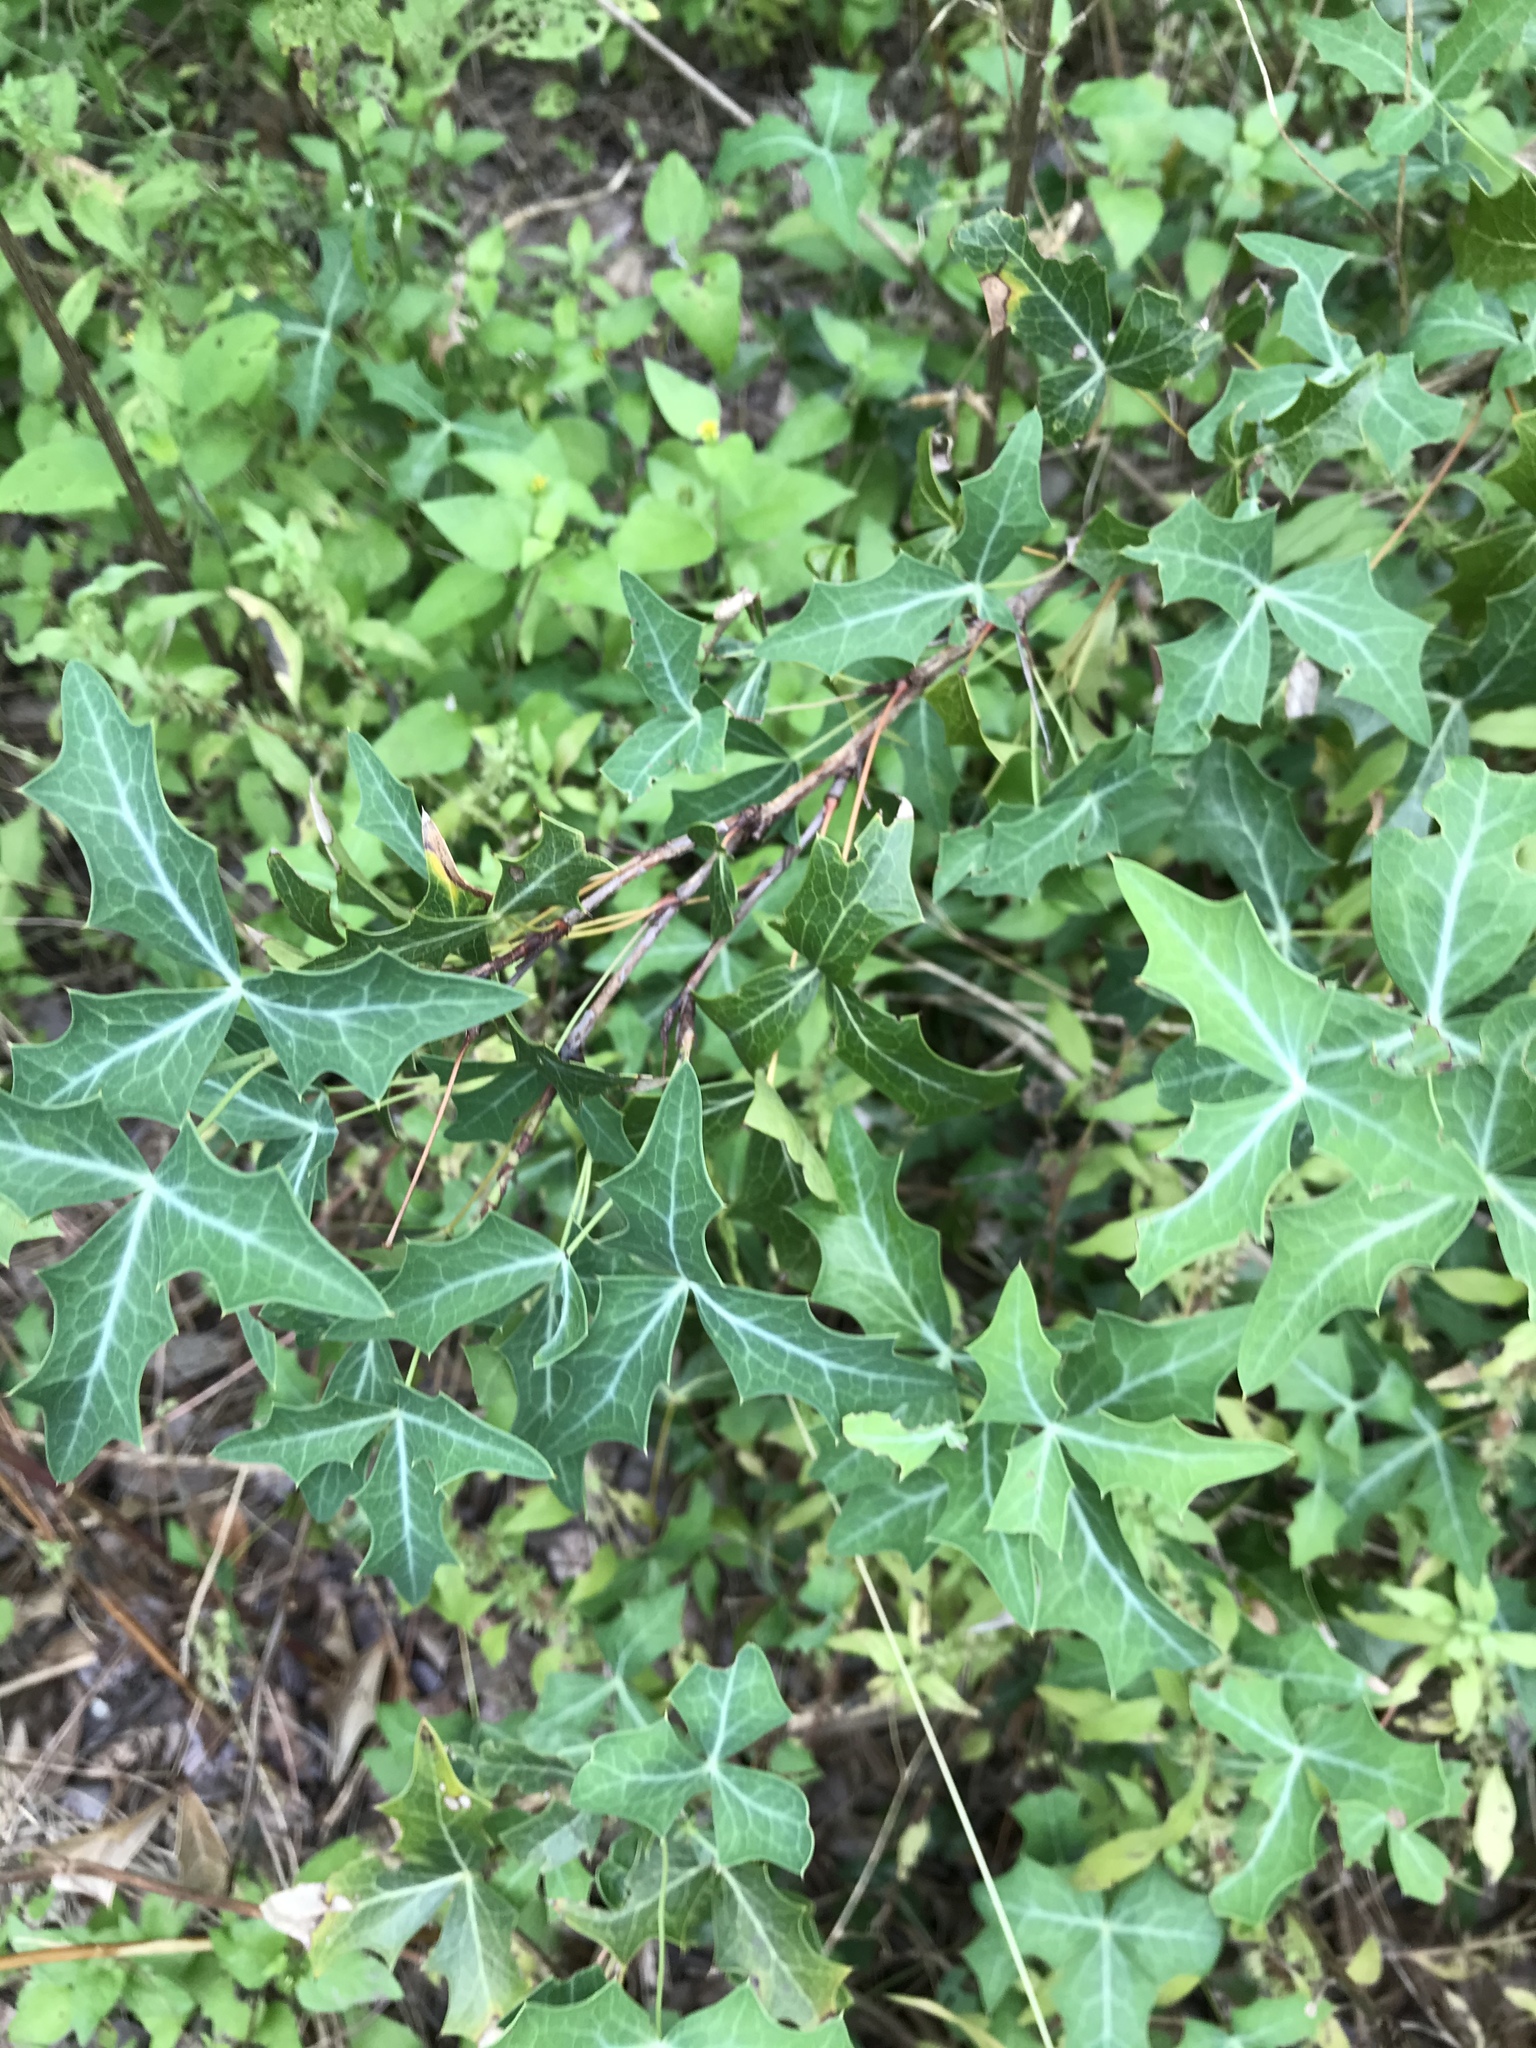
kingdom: Plantae
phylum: Tracheophyta
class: Magnoliopsida
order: Ranunculales
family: Berberidaceae
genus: Alloberberis
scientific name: Alloberberis trifoliolata
